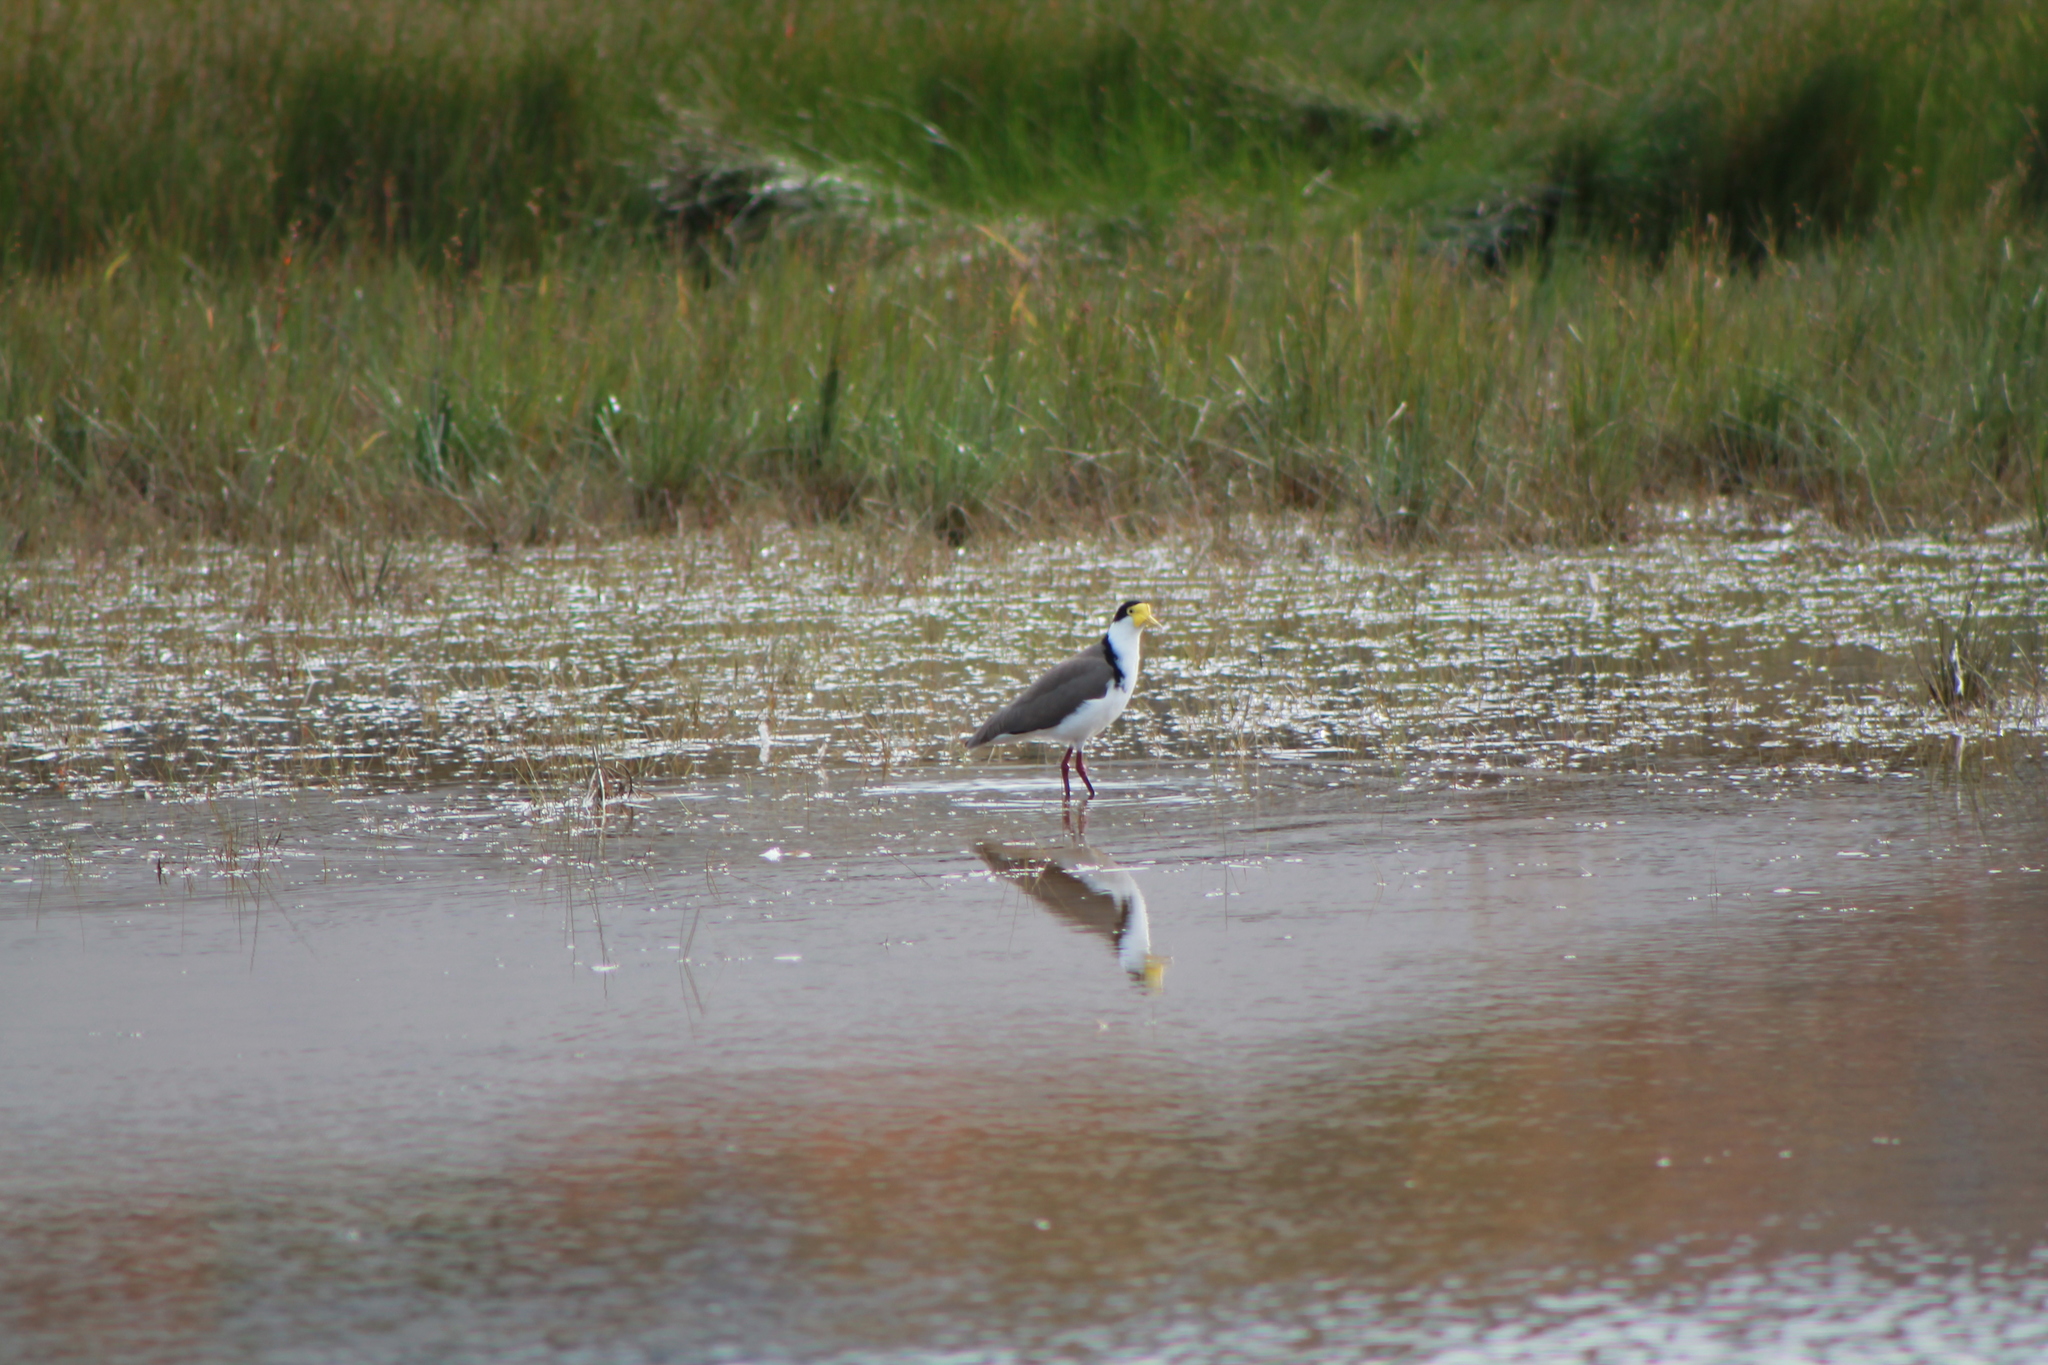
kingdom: Animalia
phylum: Chordata
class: Aves
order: Charadriiformes
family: Charadriidae
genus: Vanellus
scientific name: Vanellus miles
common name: Masked lapwing
